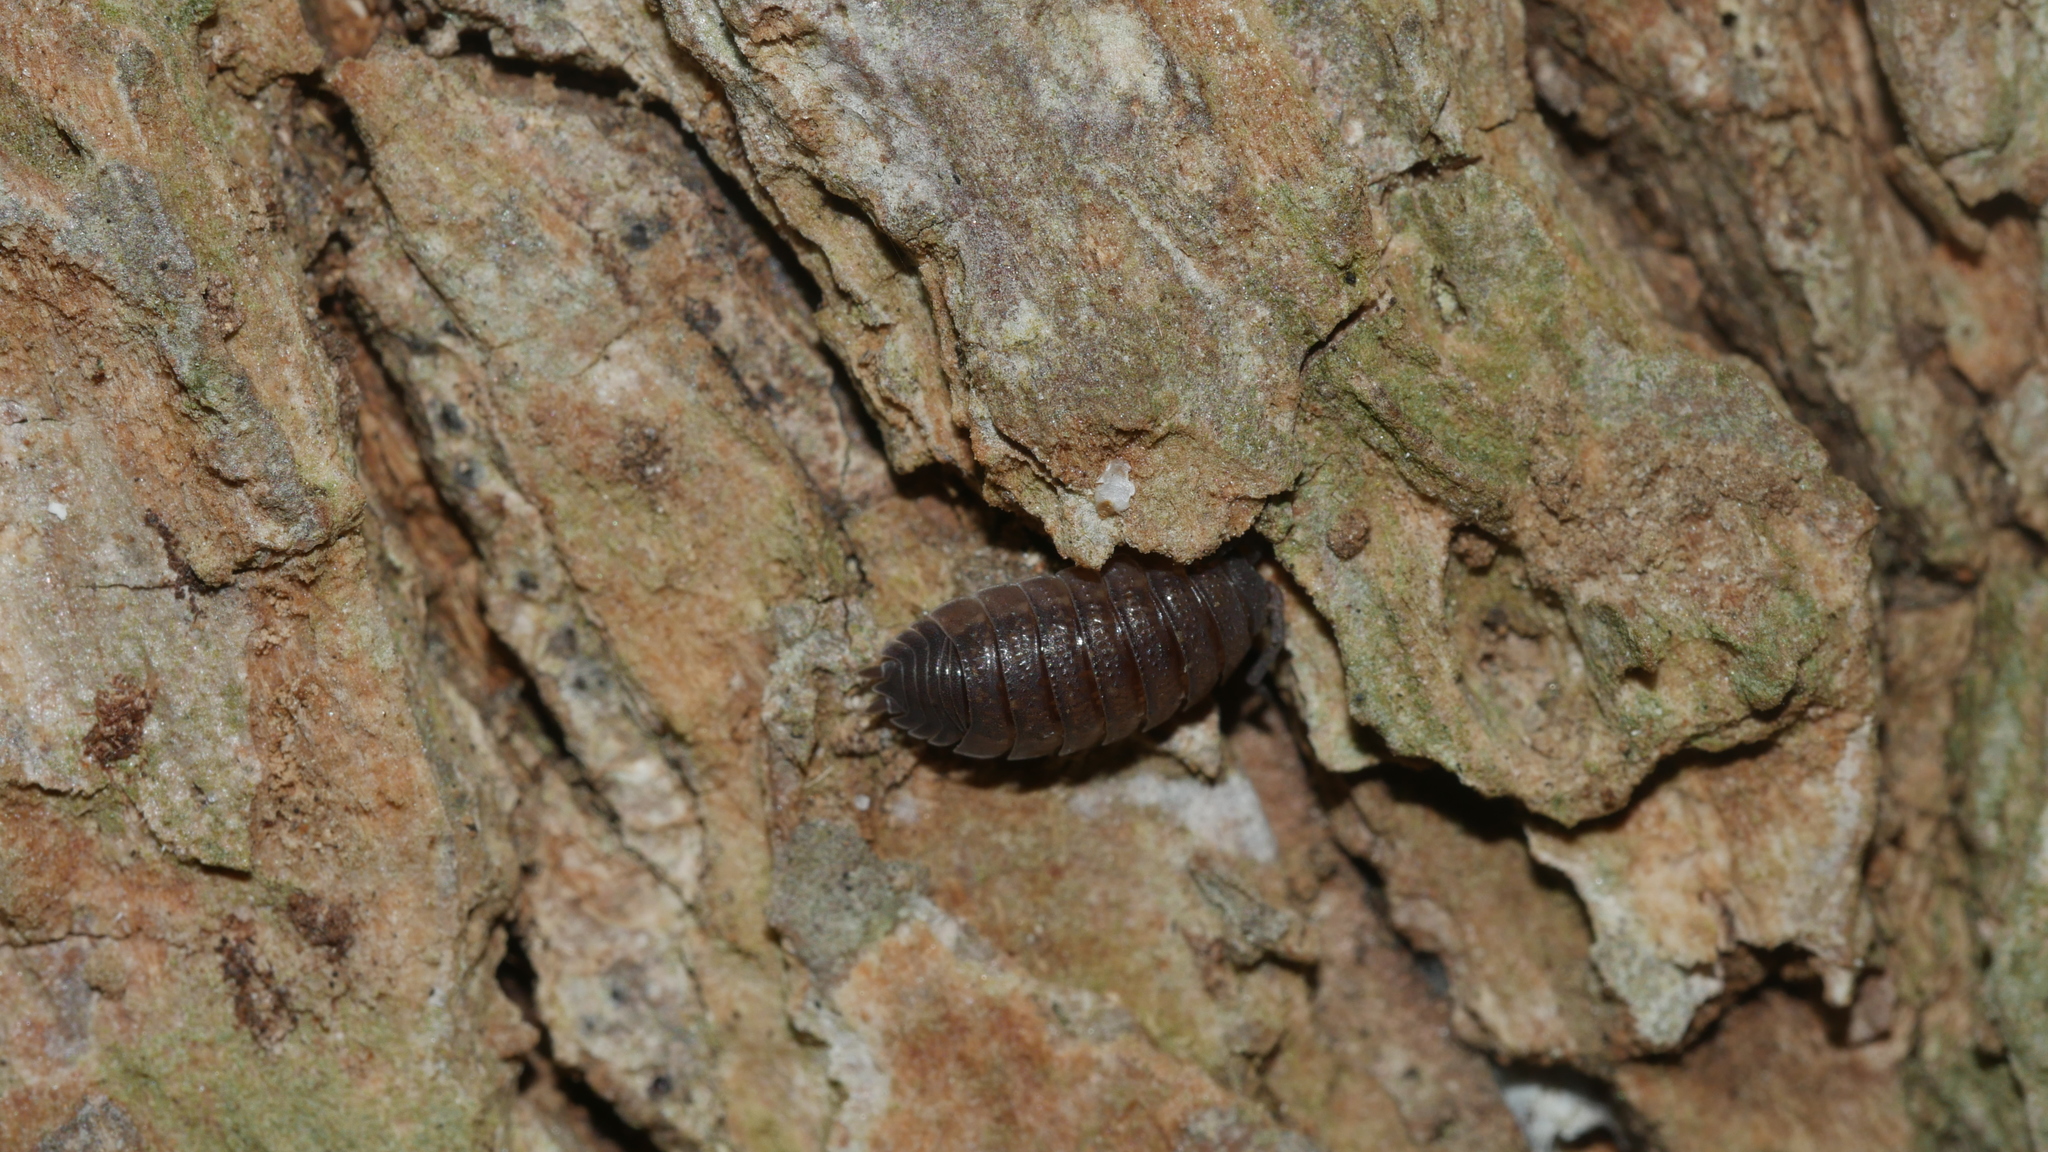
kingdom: Animalia
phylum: Arthropoda
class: Malacostraca
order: Isopoda
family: Porcellionidae
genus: Porcellio
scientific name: Porcellio scaber
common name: Common rough woodlouse
